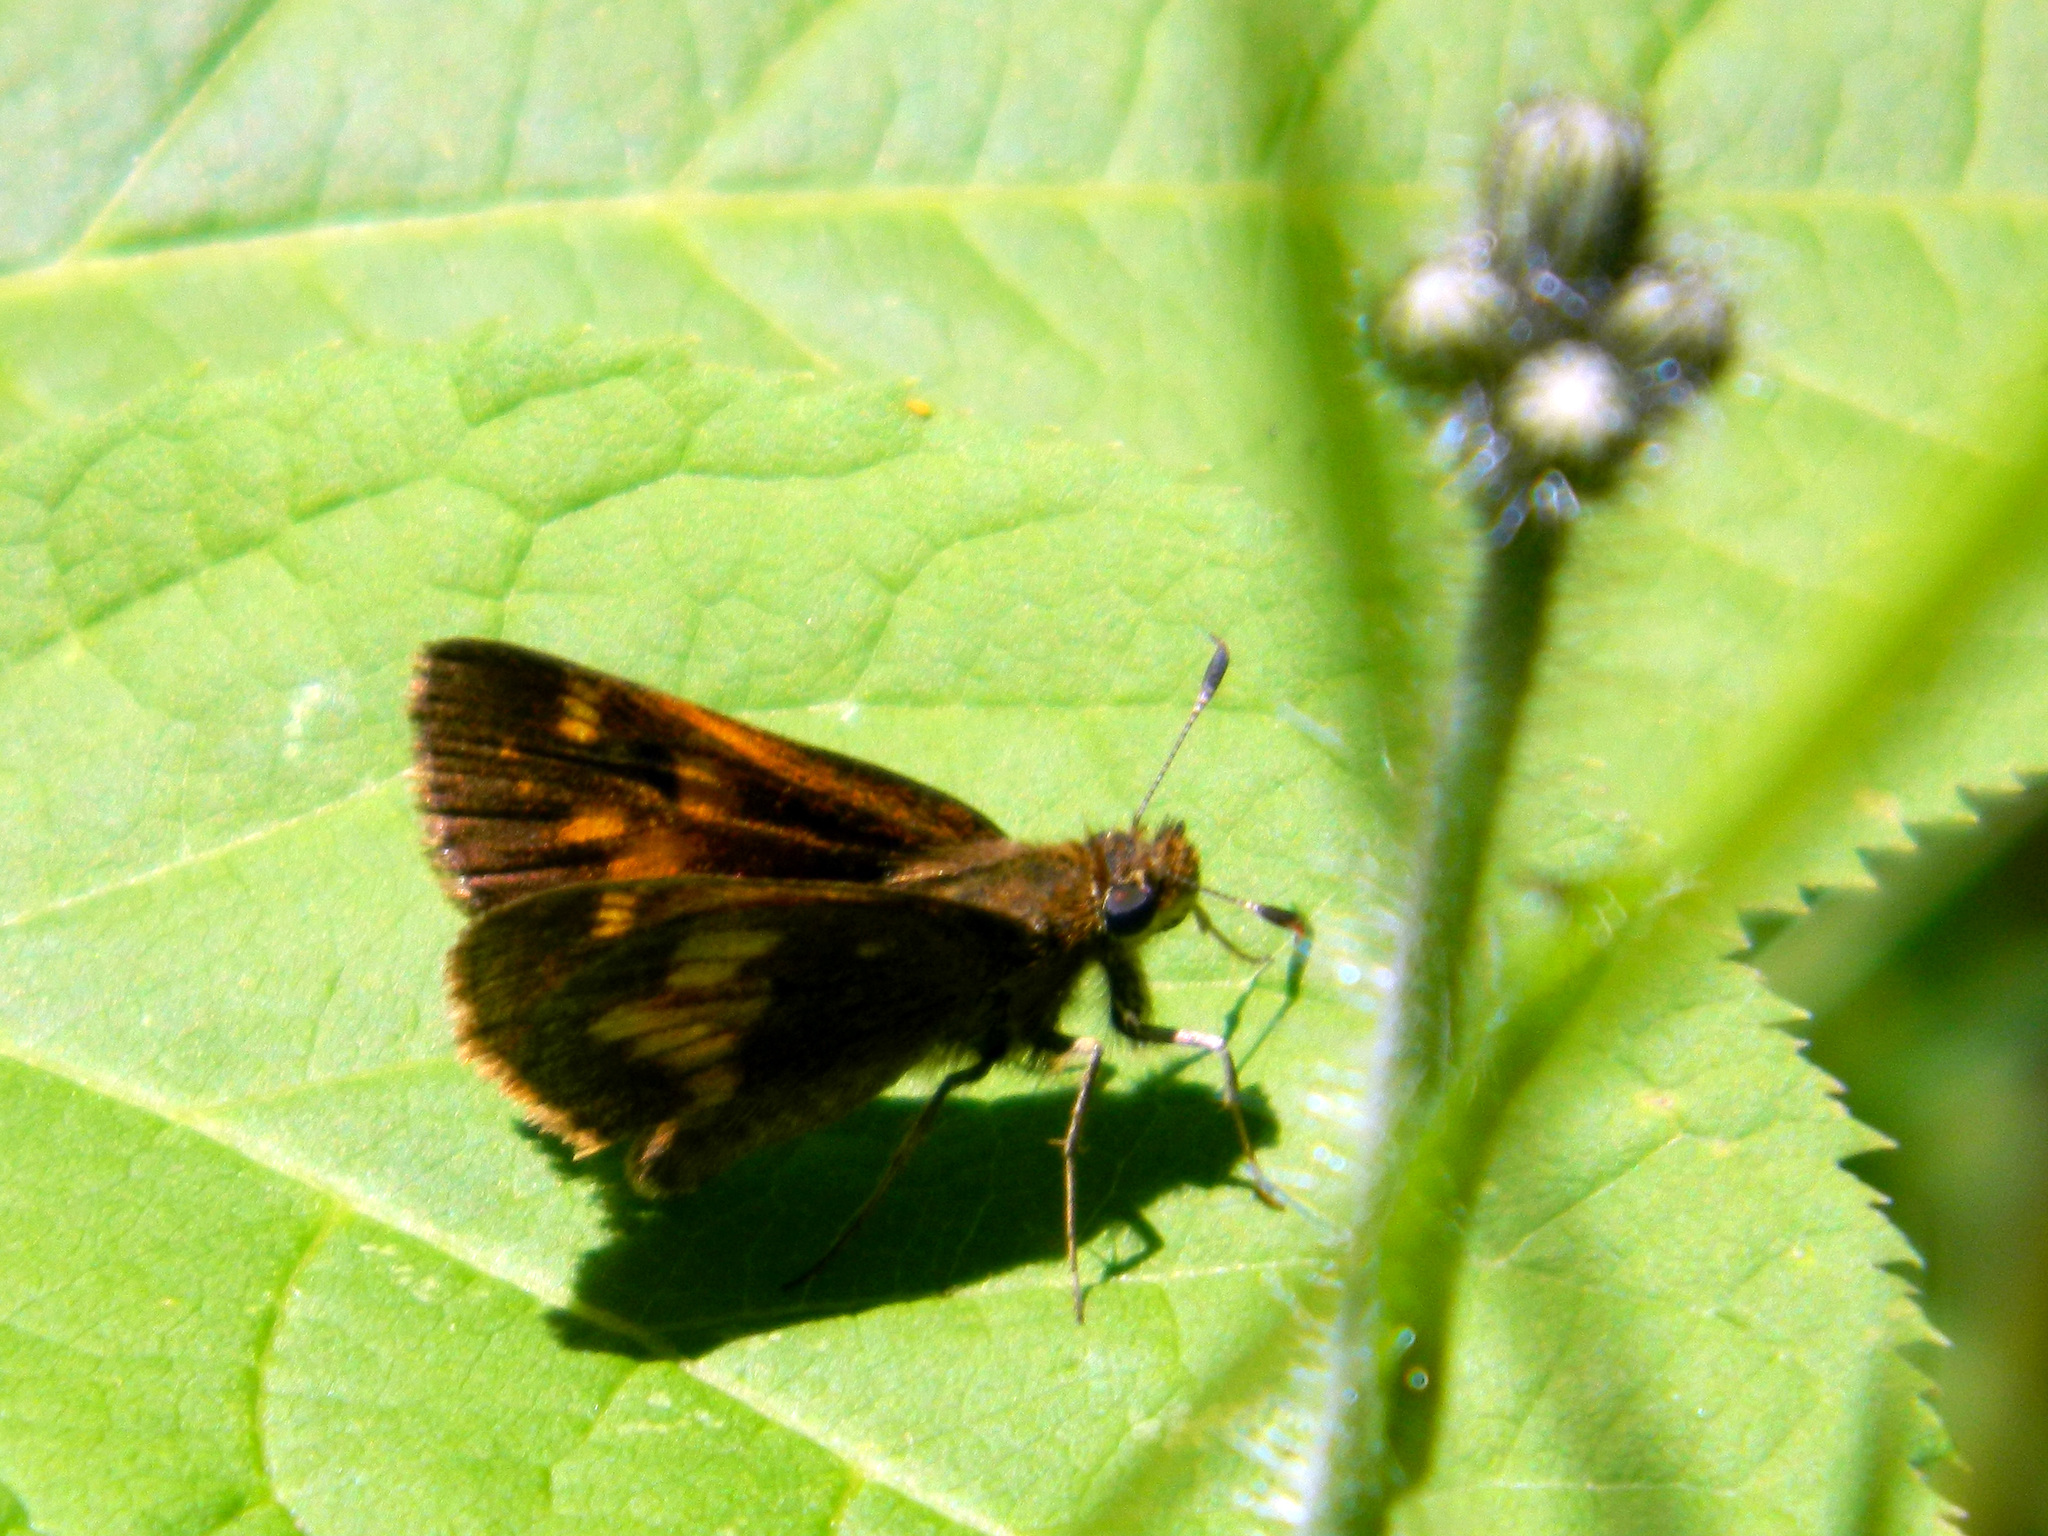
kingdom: Animalia
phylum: Arthropoda
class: Insecta
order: Lepidoptera
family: Hesperiidae
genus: Lon
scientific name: Lon hobomok
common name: Hobomok skipper
